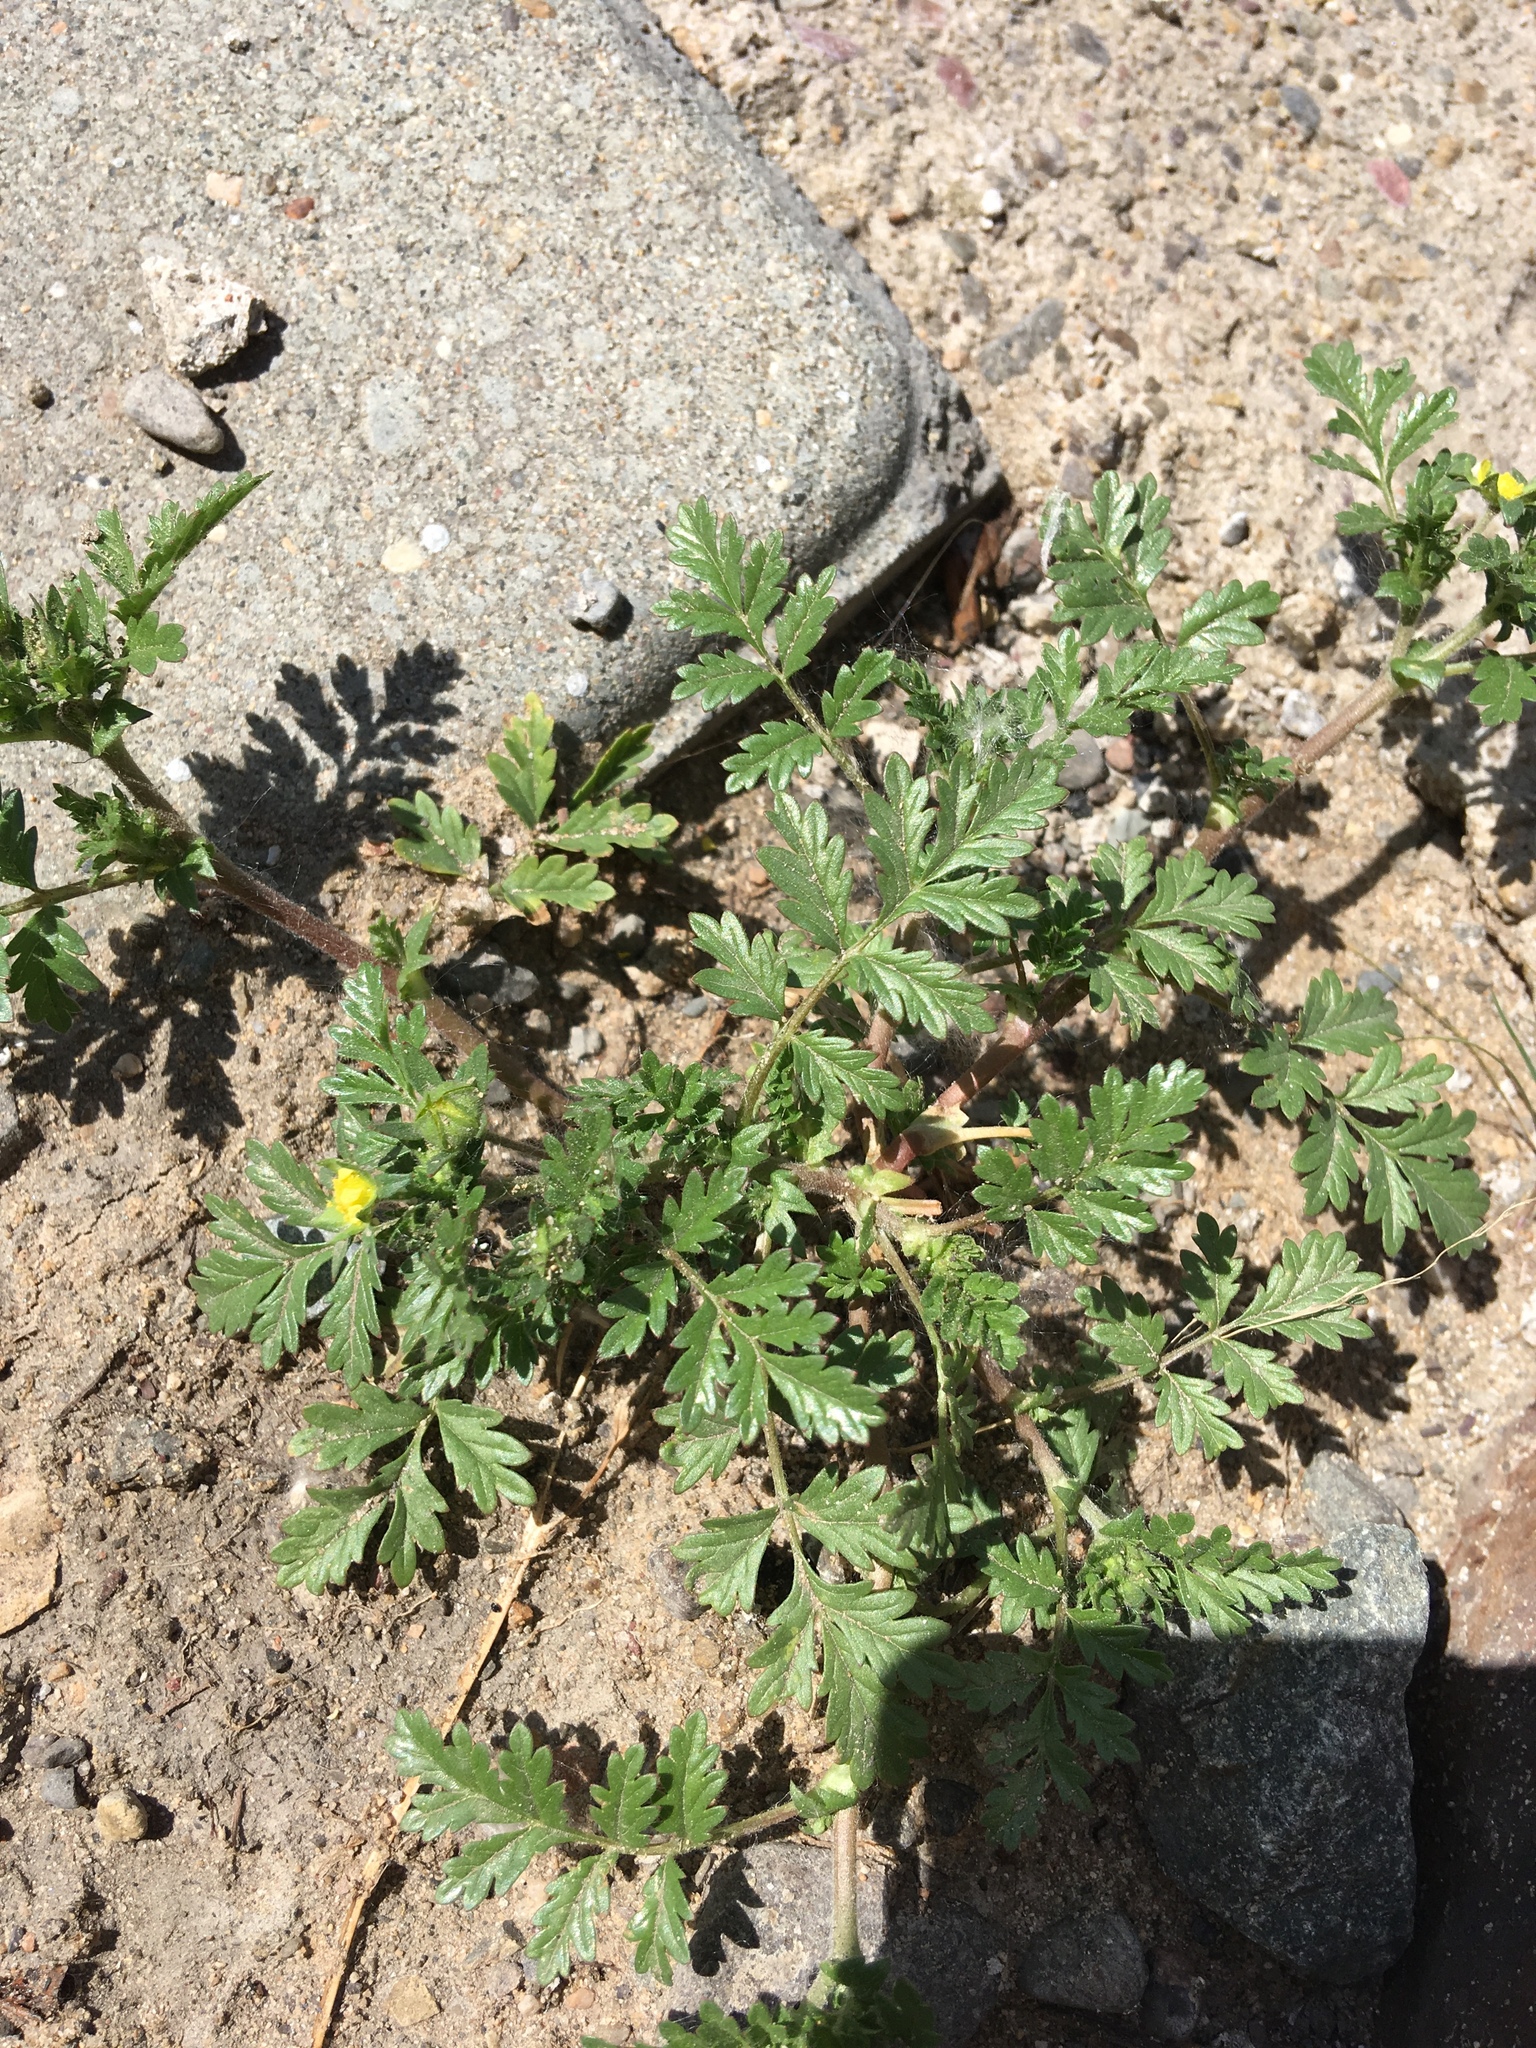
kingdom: Plantae
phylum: Tracheophyta
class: Magnoliopsida
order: Rosales
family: Rosaceae
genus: Potentilla
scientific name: Potentilla supina
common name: Prostrate cinquefoil
